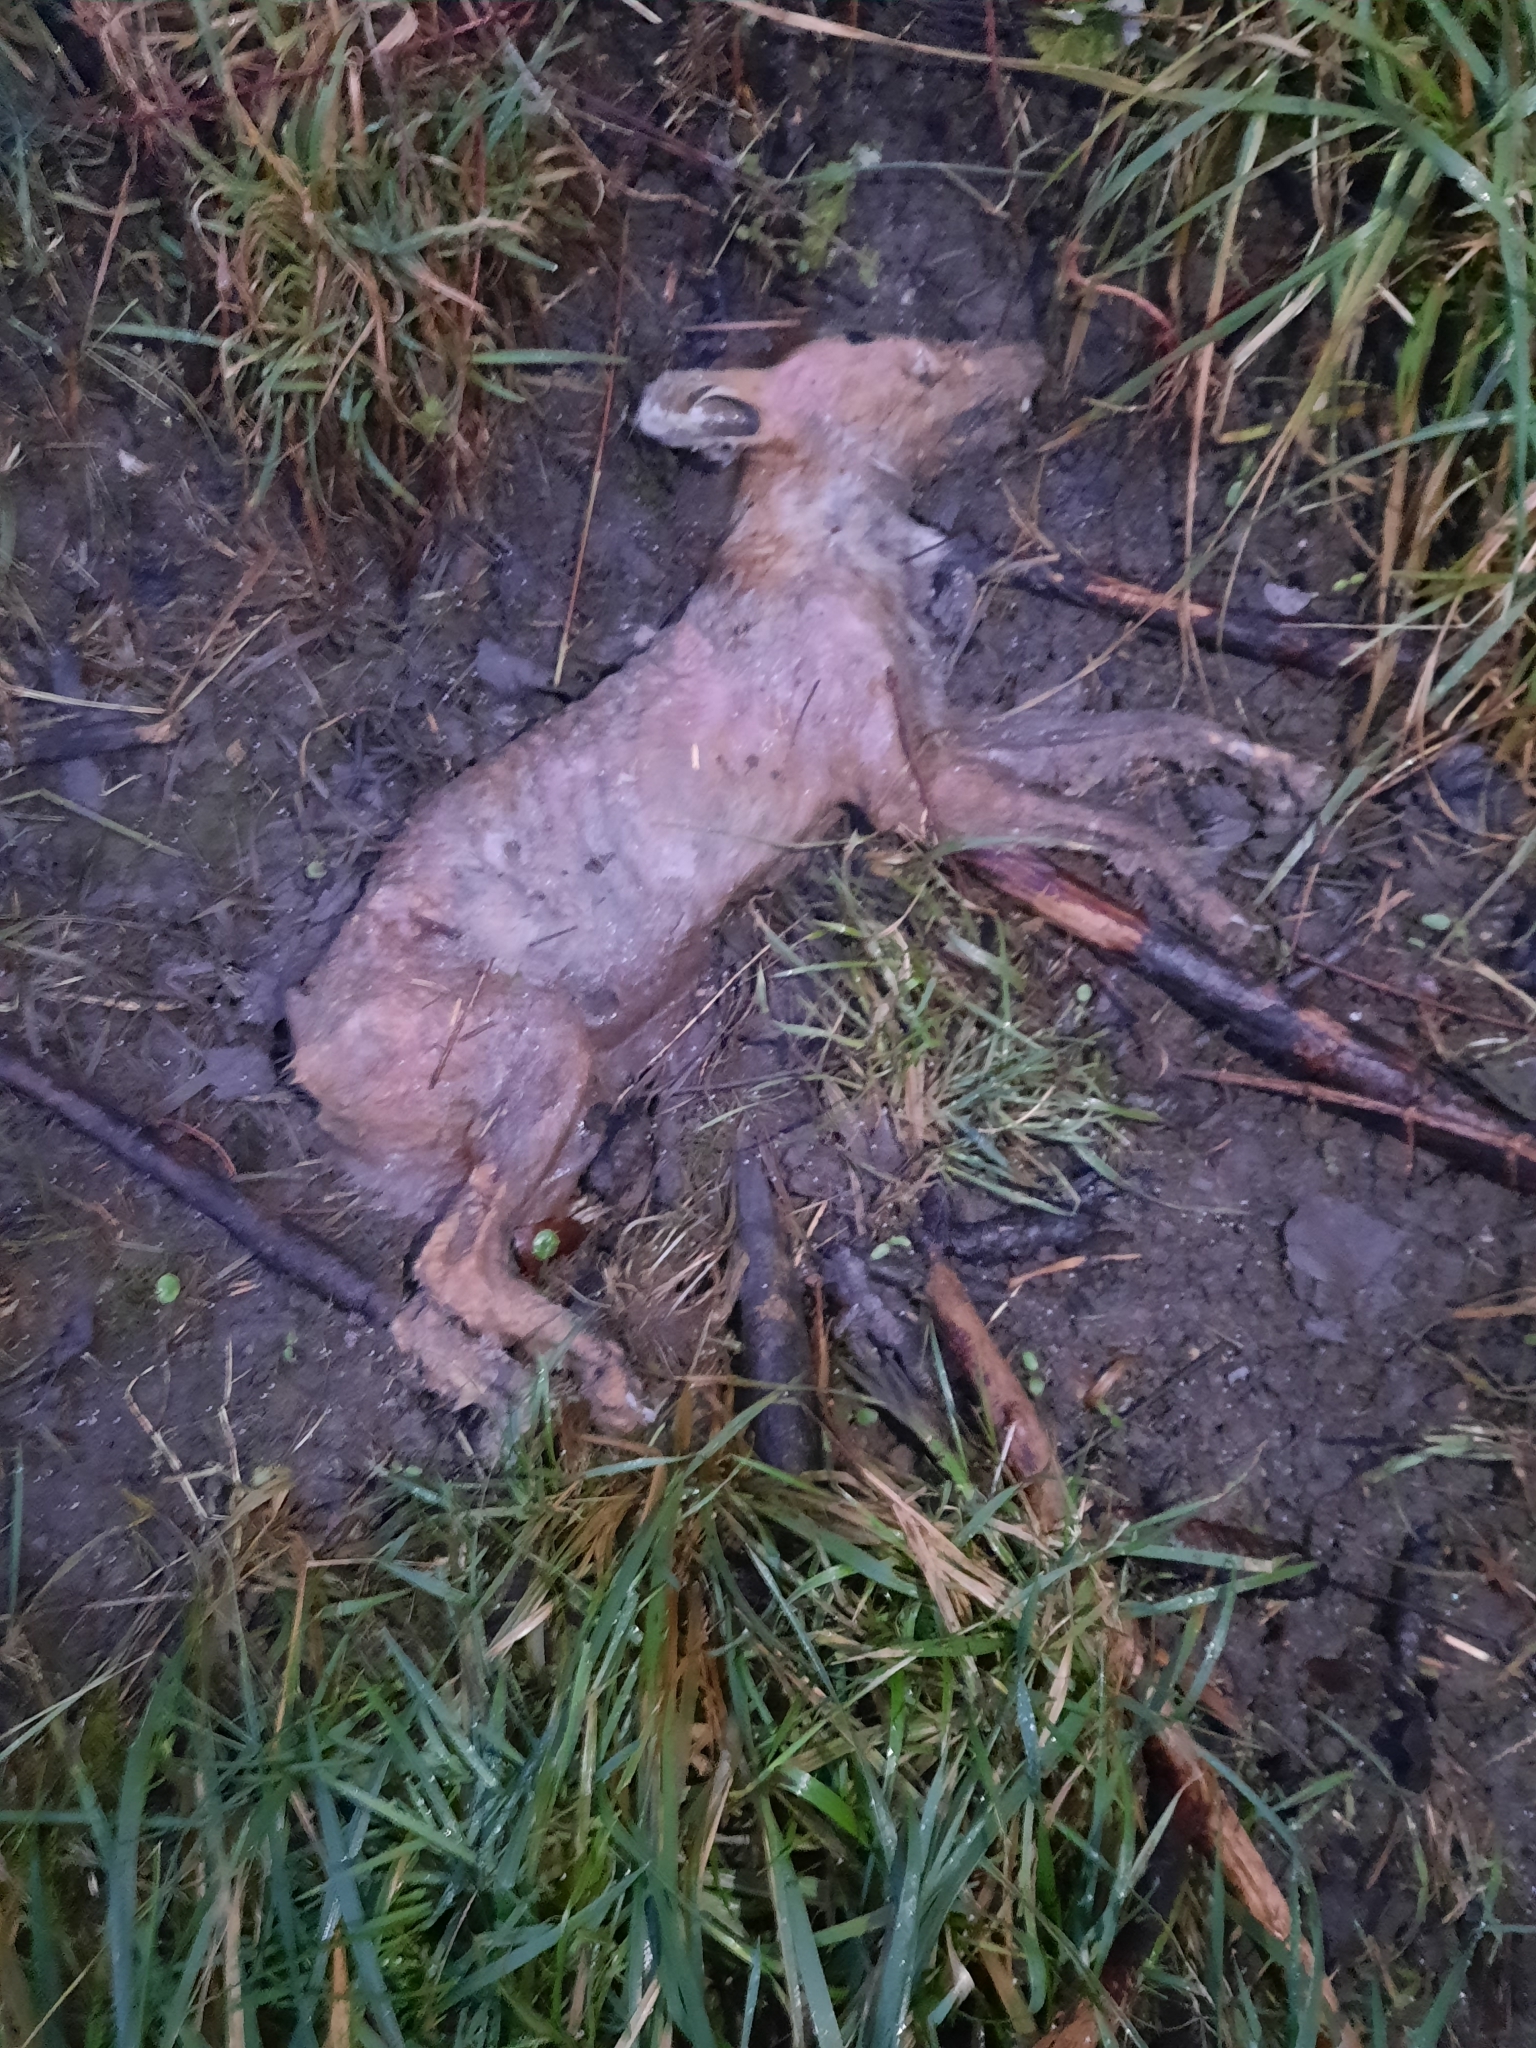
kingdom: Animalia
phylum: Chordata
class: Mammalia
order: Carnivora
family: Canidae
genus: Vulpes
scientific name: Vulpes vulpes
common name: Red fox
